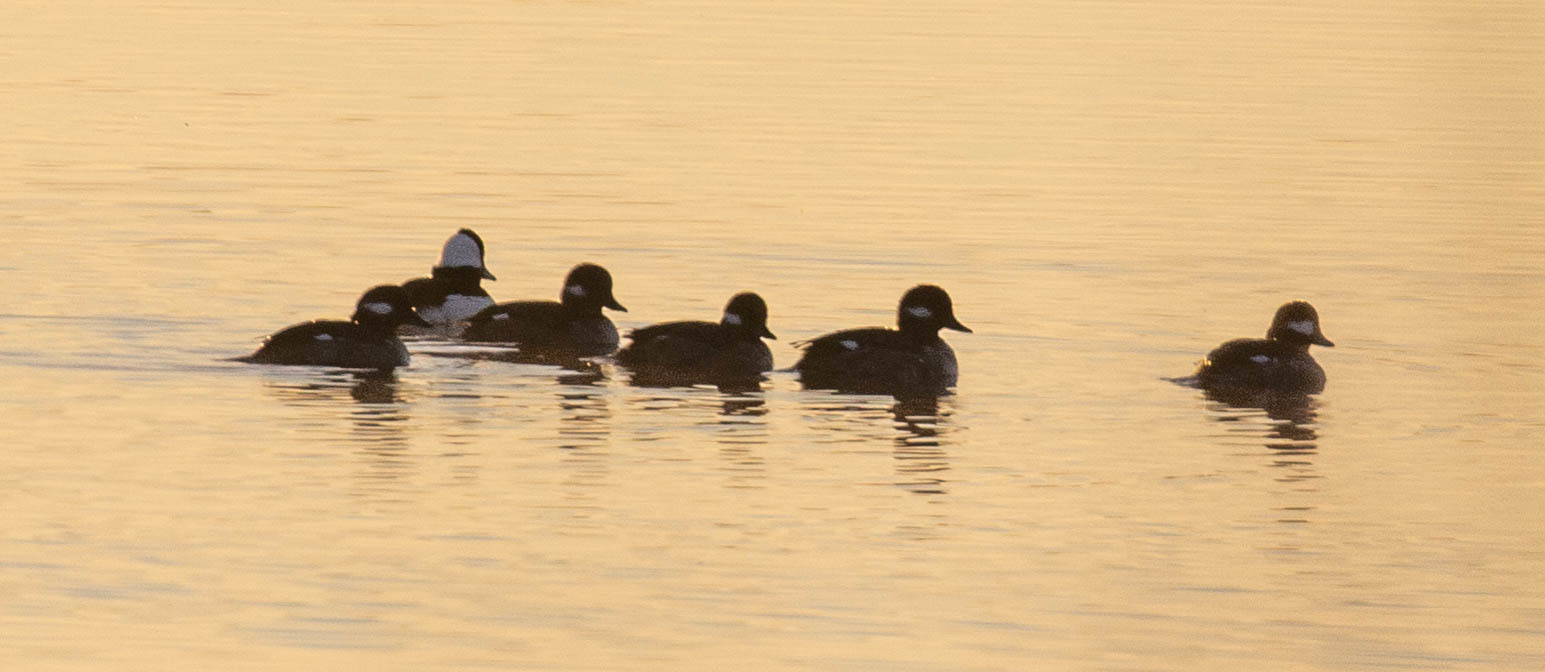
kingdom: Animalia
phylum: Chordata
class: Aves
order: Anseriformes
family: Anatidae
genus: Bucephala
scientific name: Bucephala albeola
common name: Bufflehead
